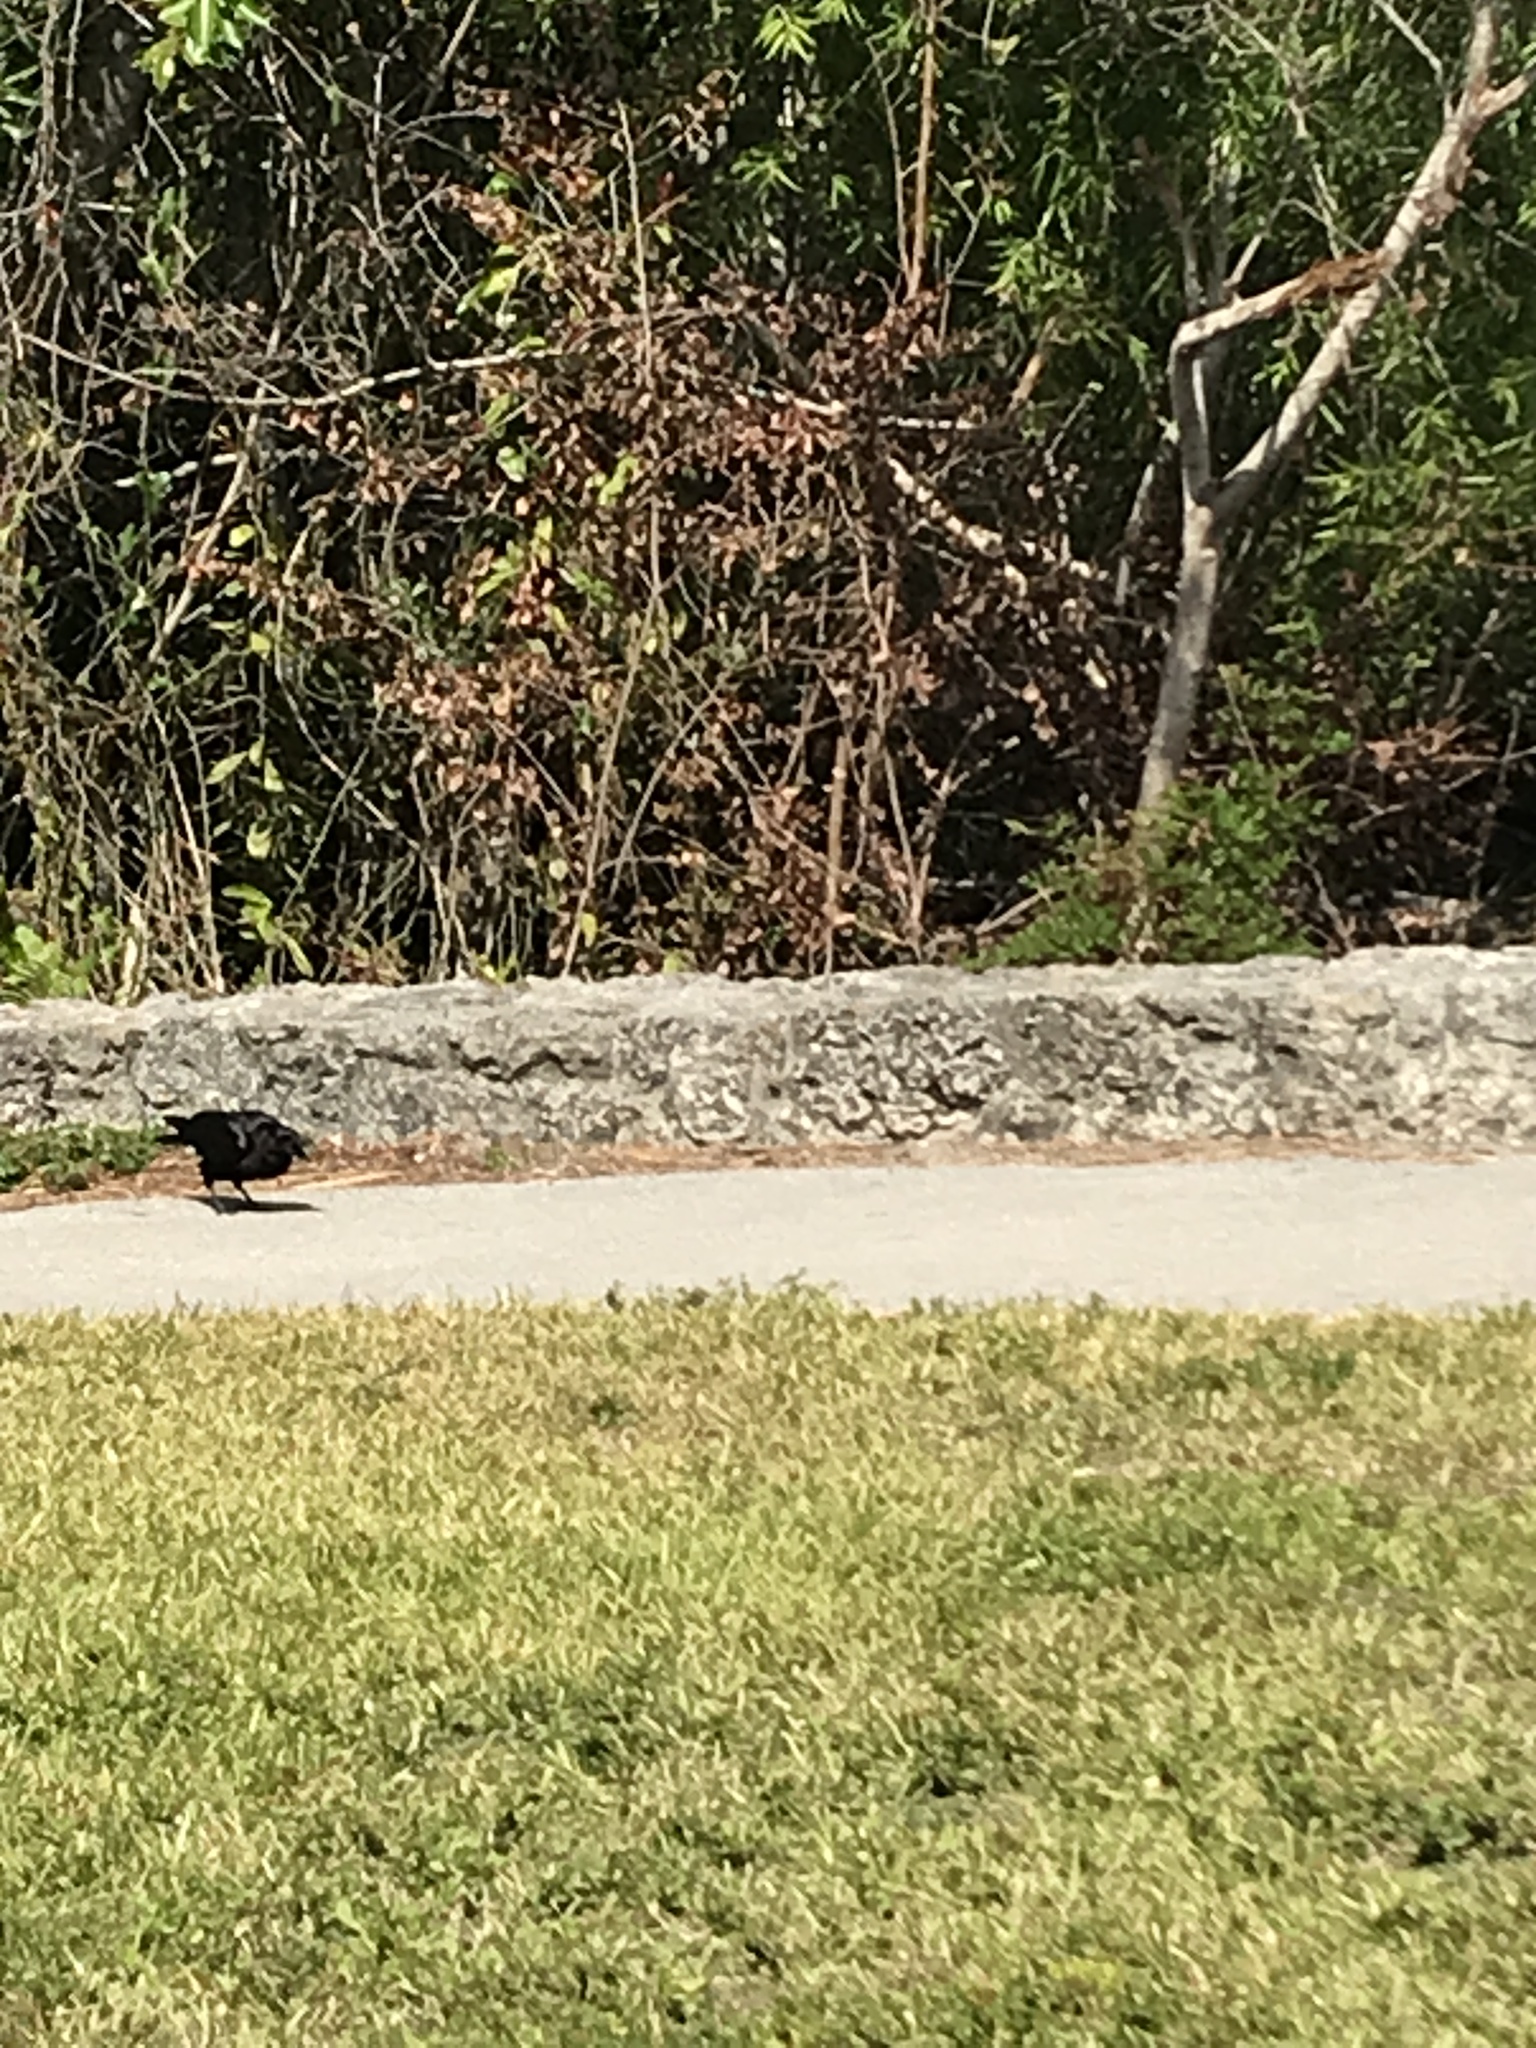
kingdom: Animalia
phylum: Chordata
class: Aves
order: Passeriformes
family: Corvidae
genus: Corvus
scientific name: Corvus brachyrhynchos
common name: American crow
